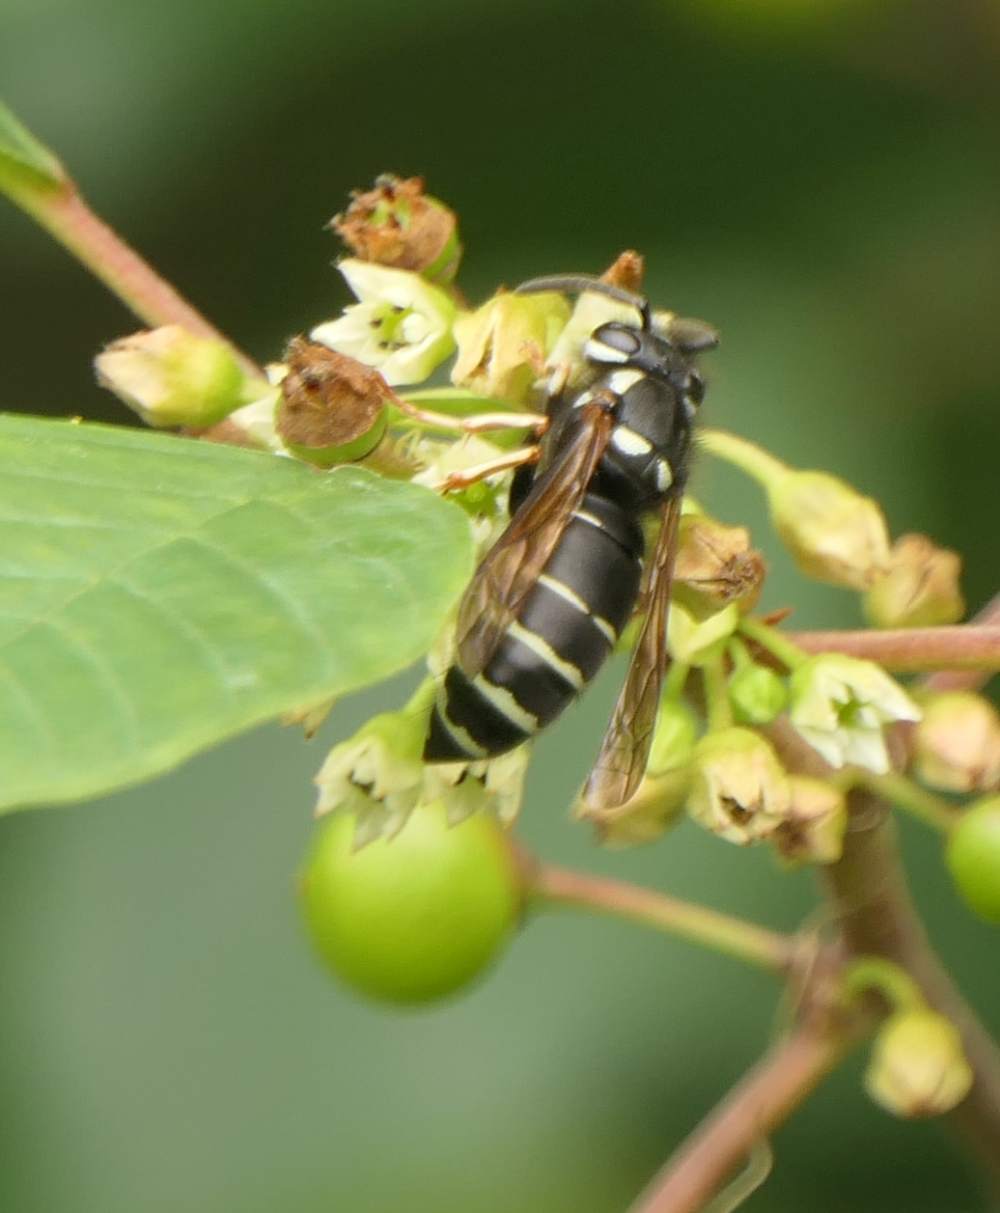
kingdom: Animalia
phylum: Arthropoda
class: Insecta
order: Hymenoptera
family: Vespidae
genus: Vespula
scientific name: Vespula consobrina
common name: Blackjacket
